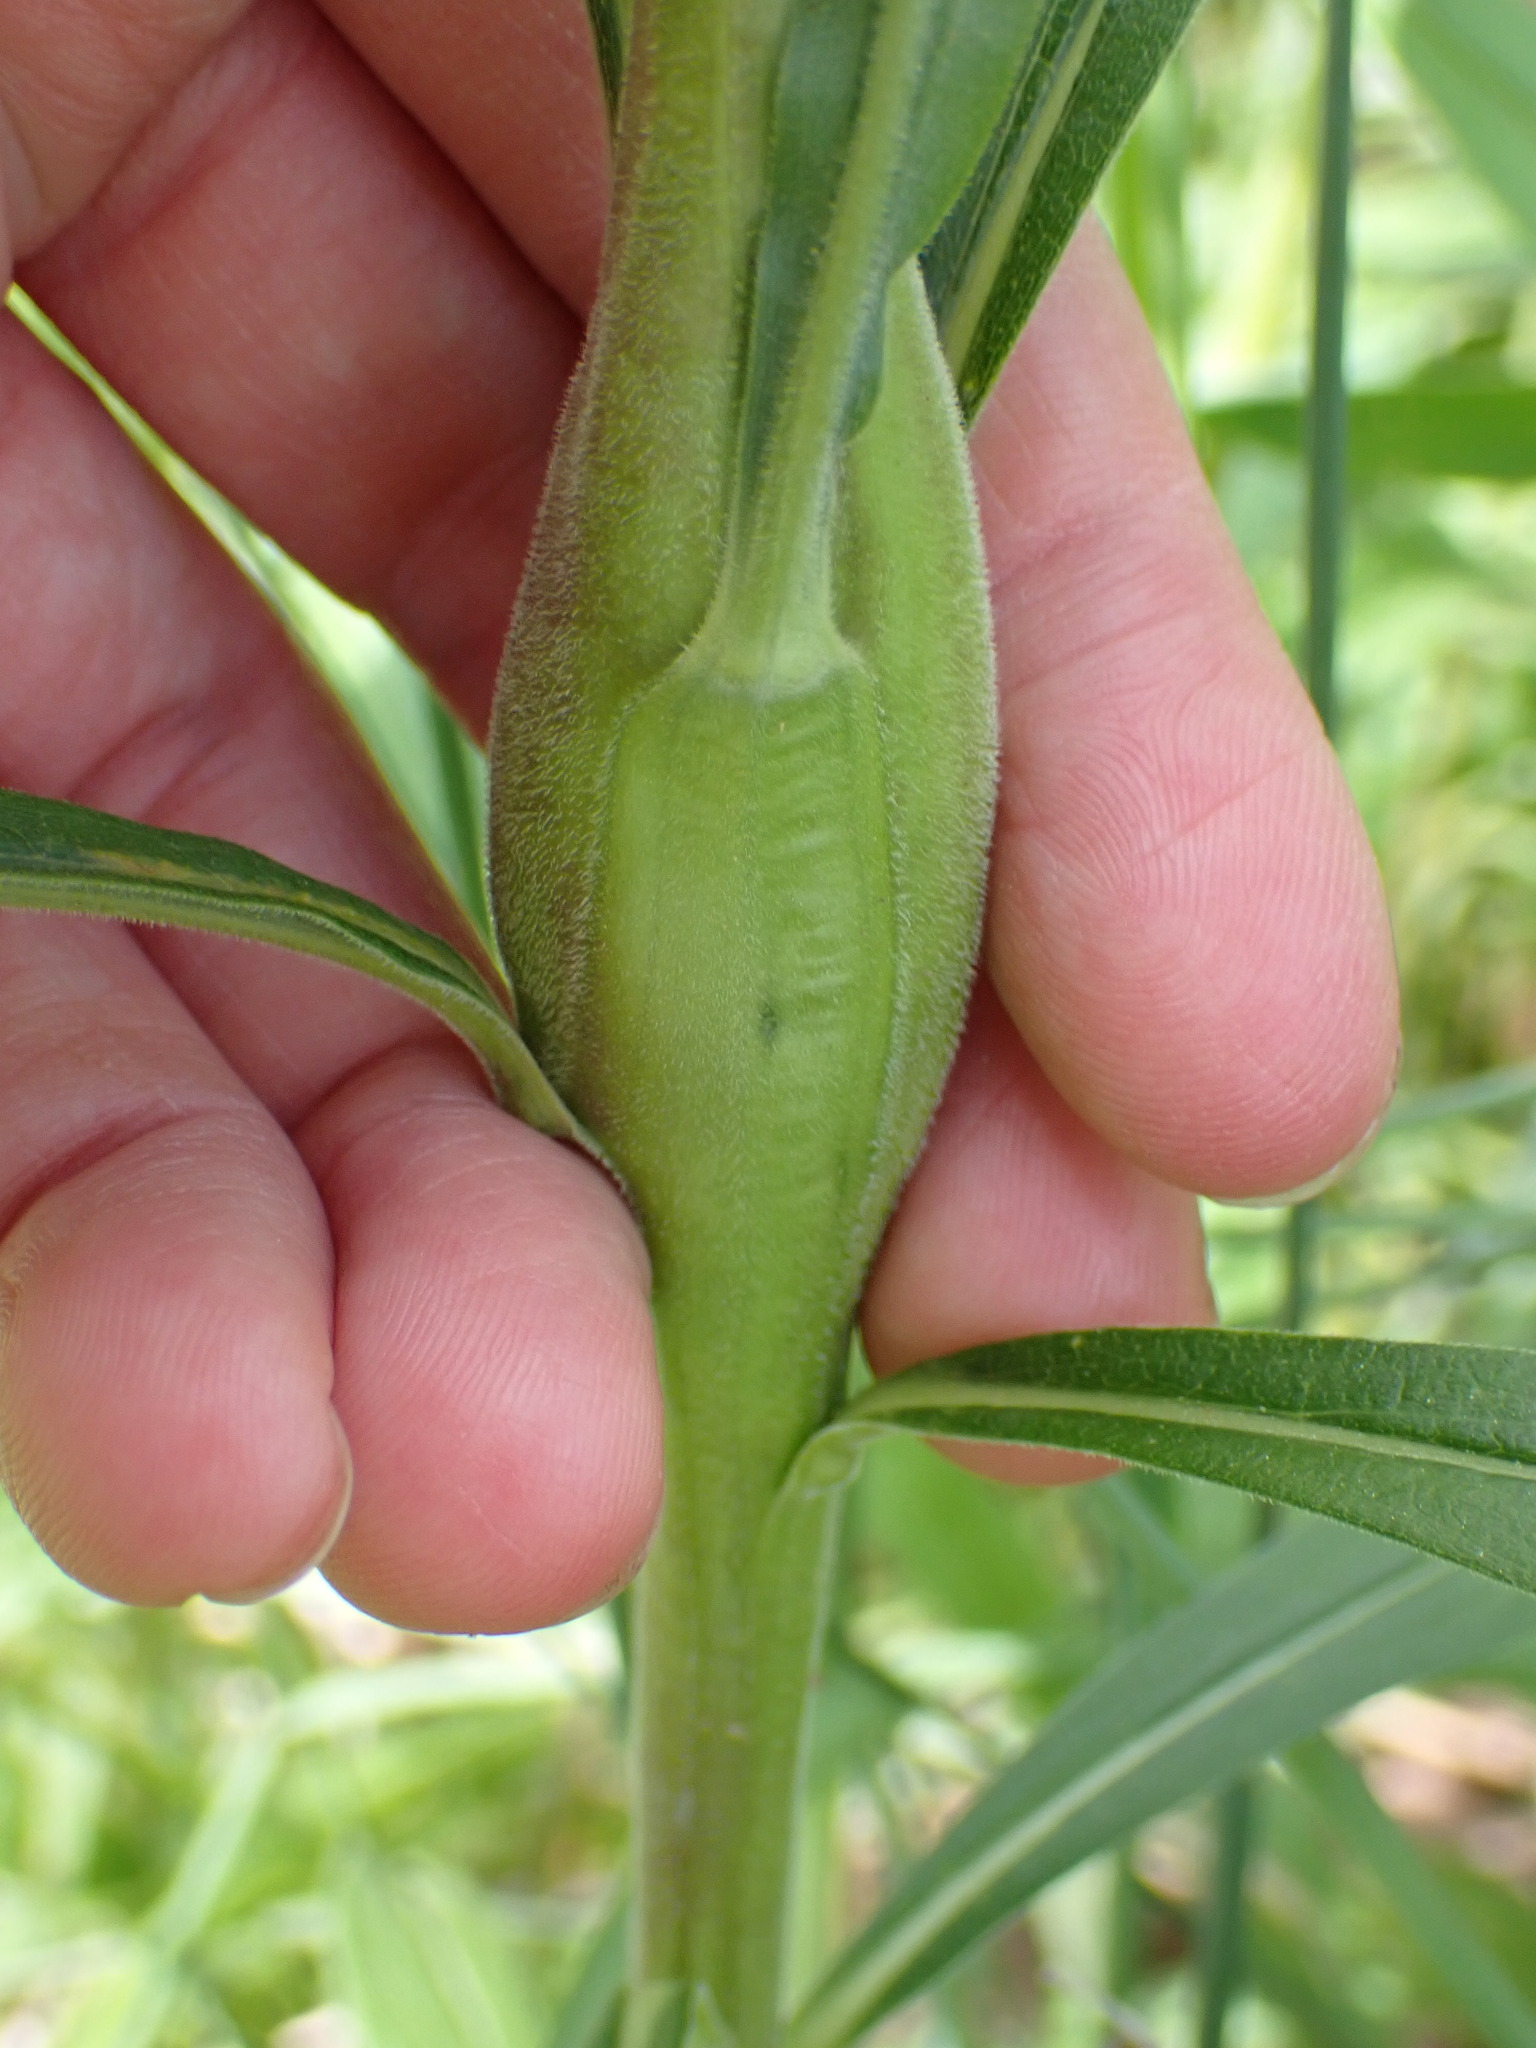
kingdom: Animalia
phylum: Arthropoda
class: Insecta
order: Lepidoptera
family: Gelechiidae
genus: Gnorimoschema
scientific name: Gnorimoschema gallaesolidaginis
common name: Goldenrod elliptical-gall moth
